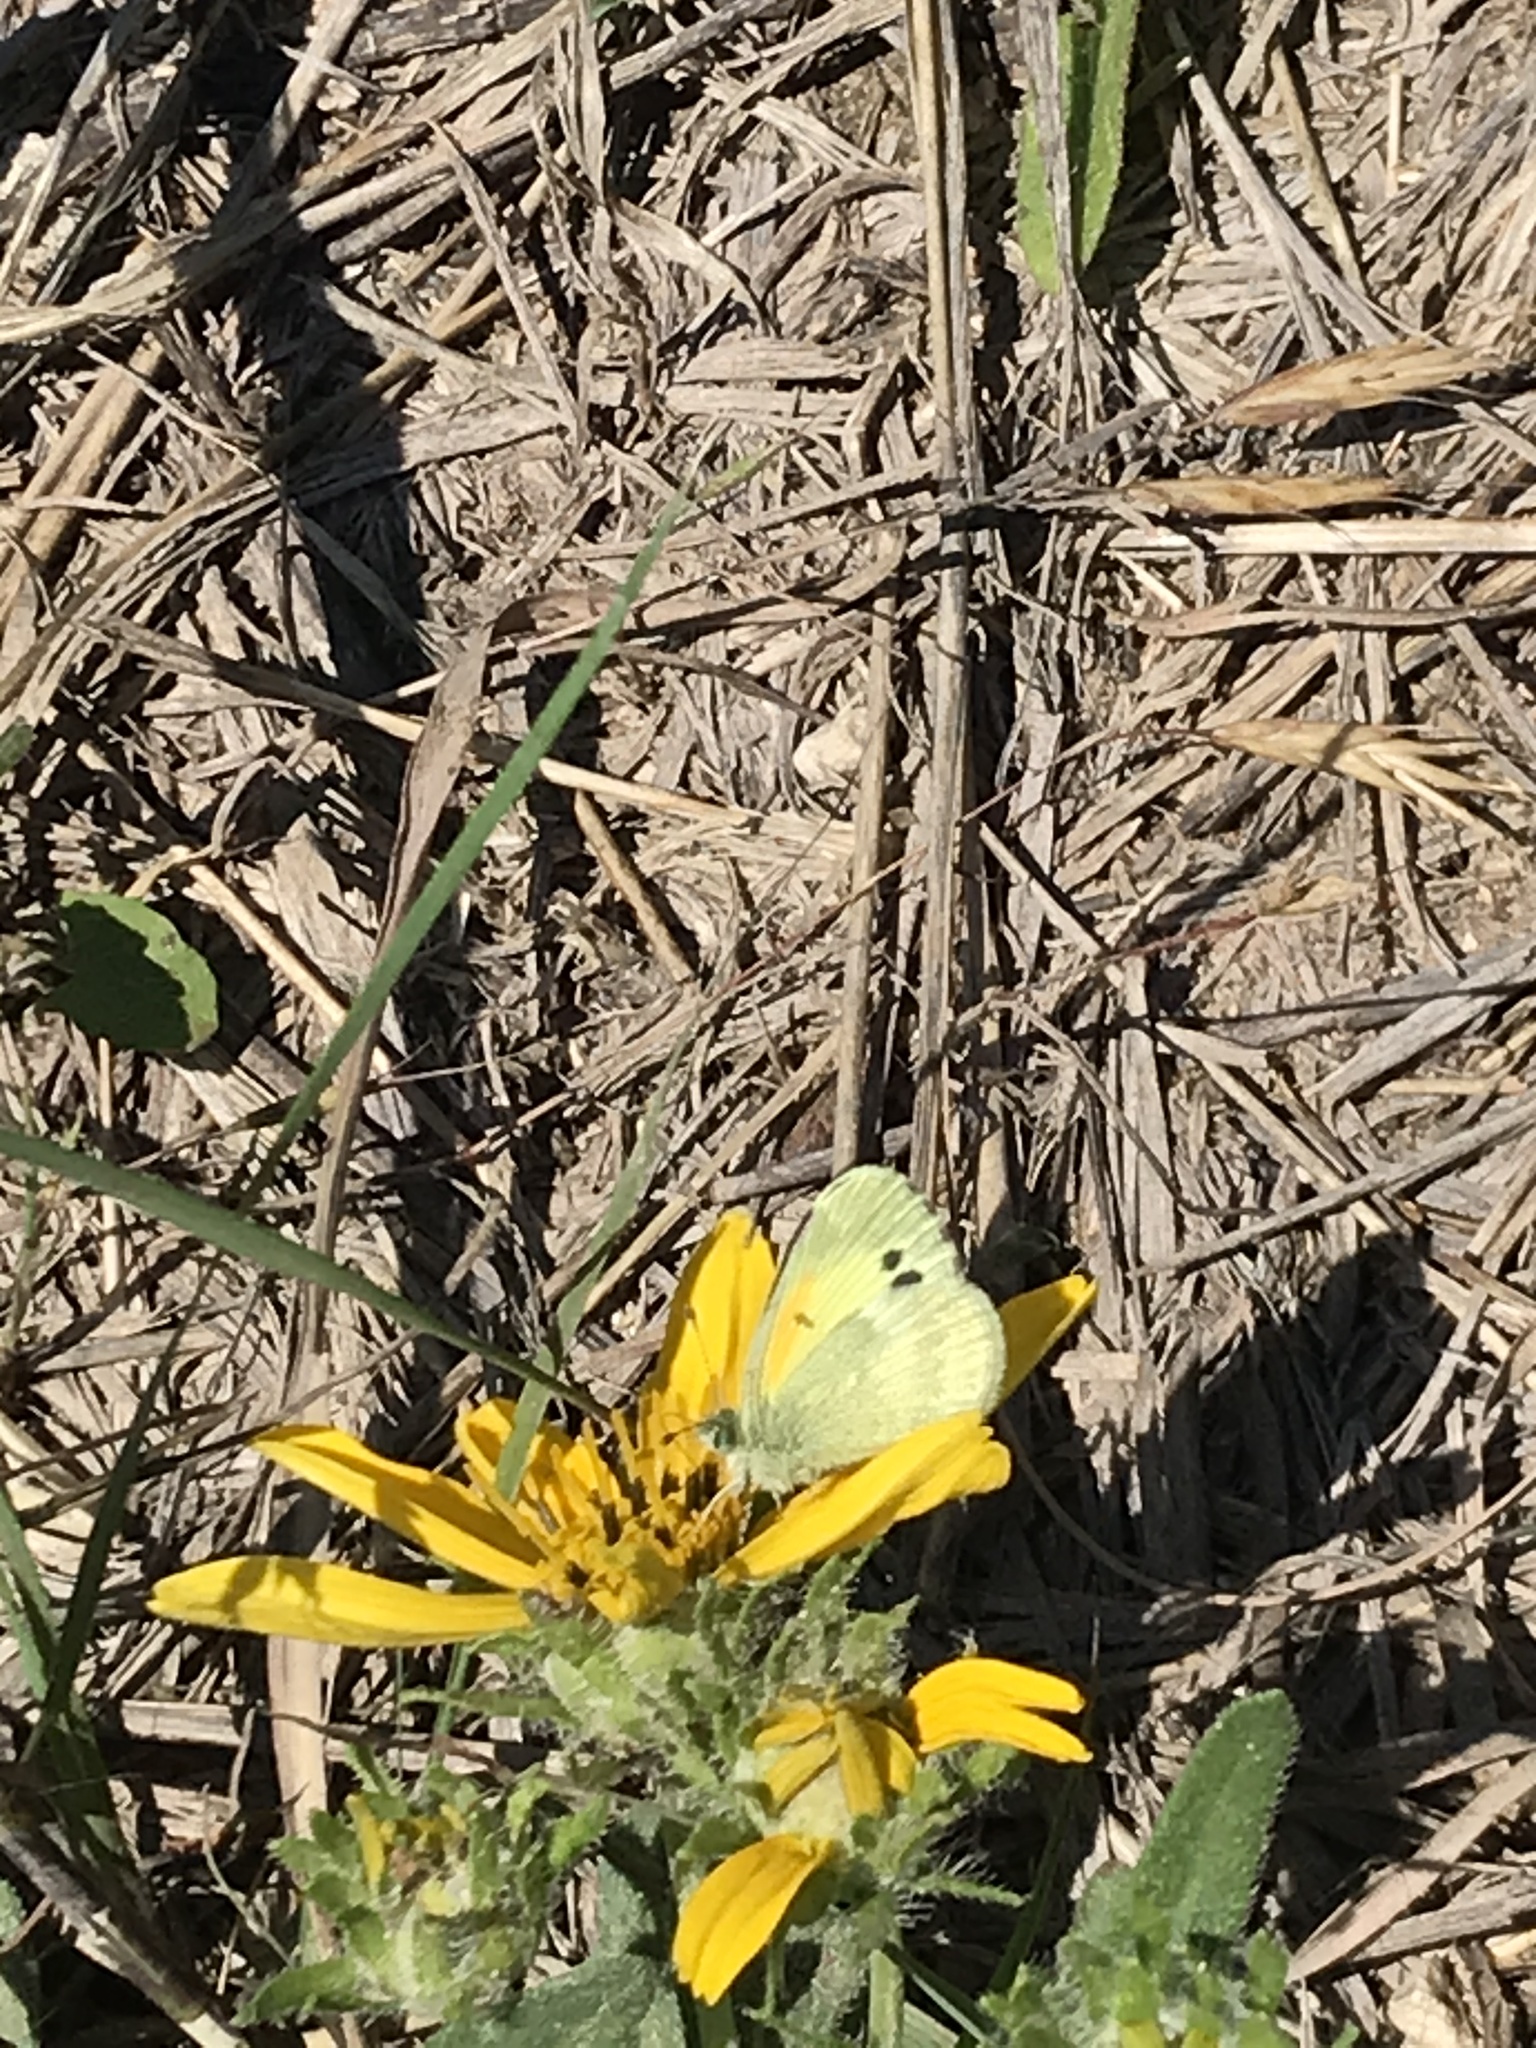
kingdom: Animalia
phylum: Arthropoda
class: Insecta
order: Lepidoptera
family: Pieridae
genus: Nathalis
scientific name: Nathalis iole
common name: Dainty sulphur
